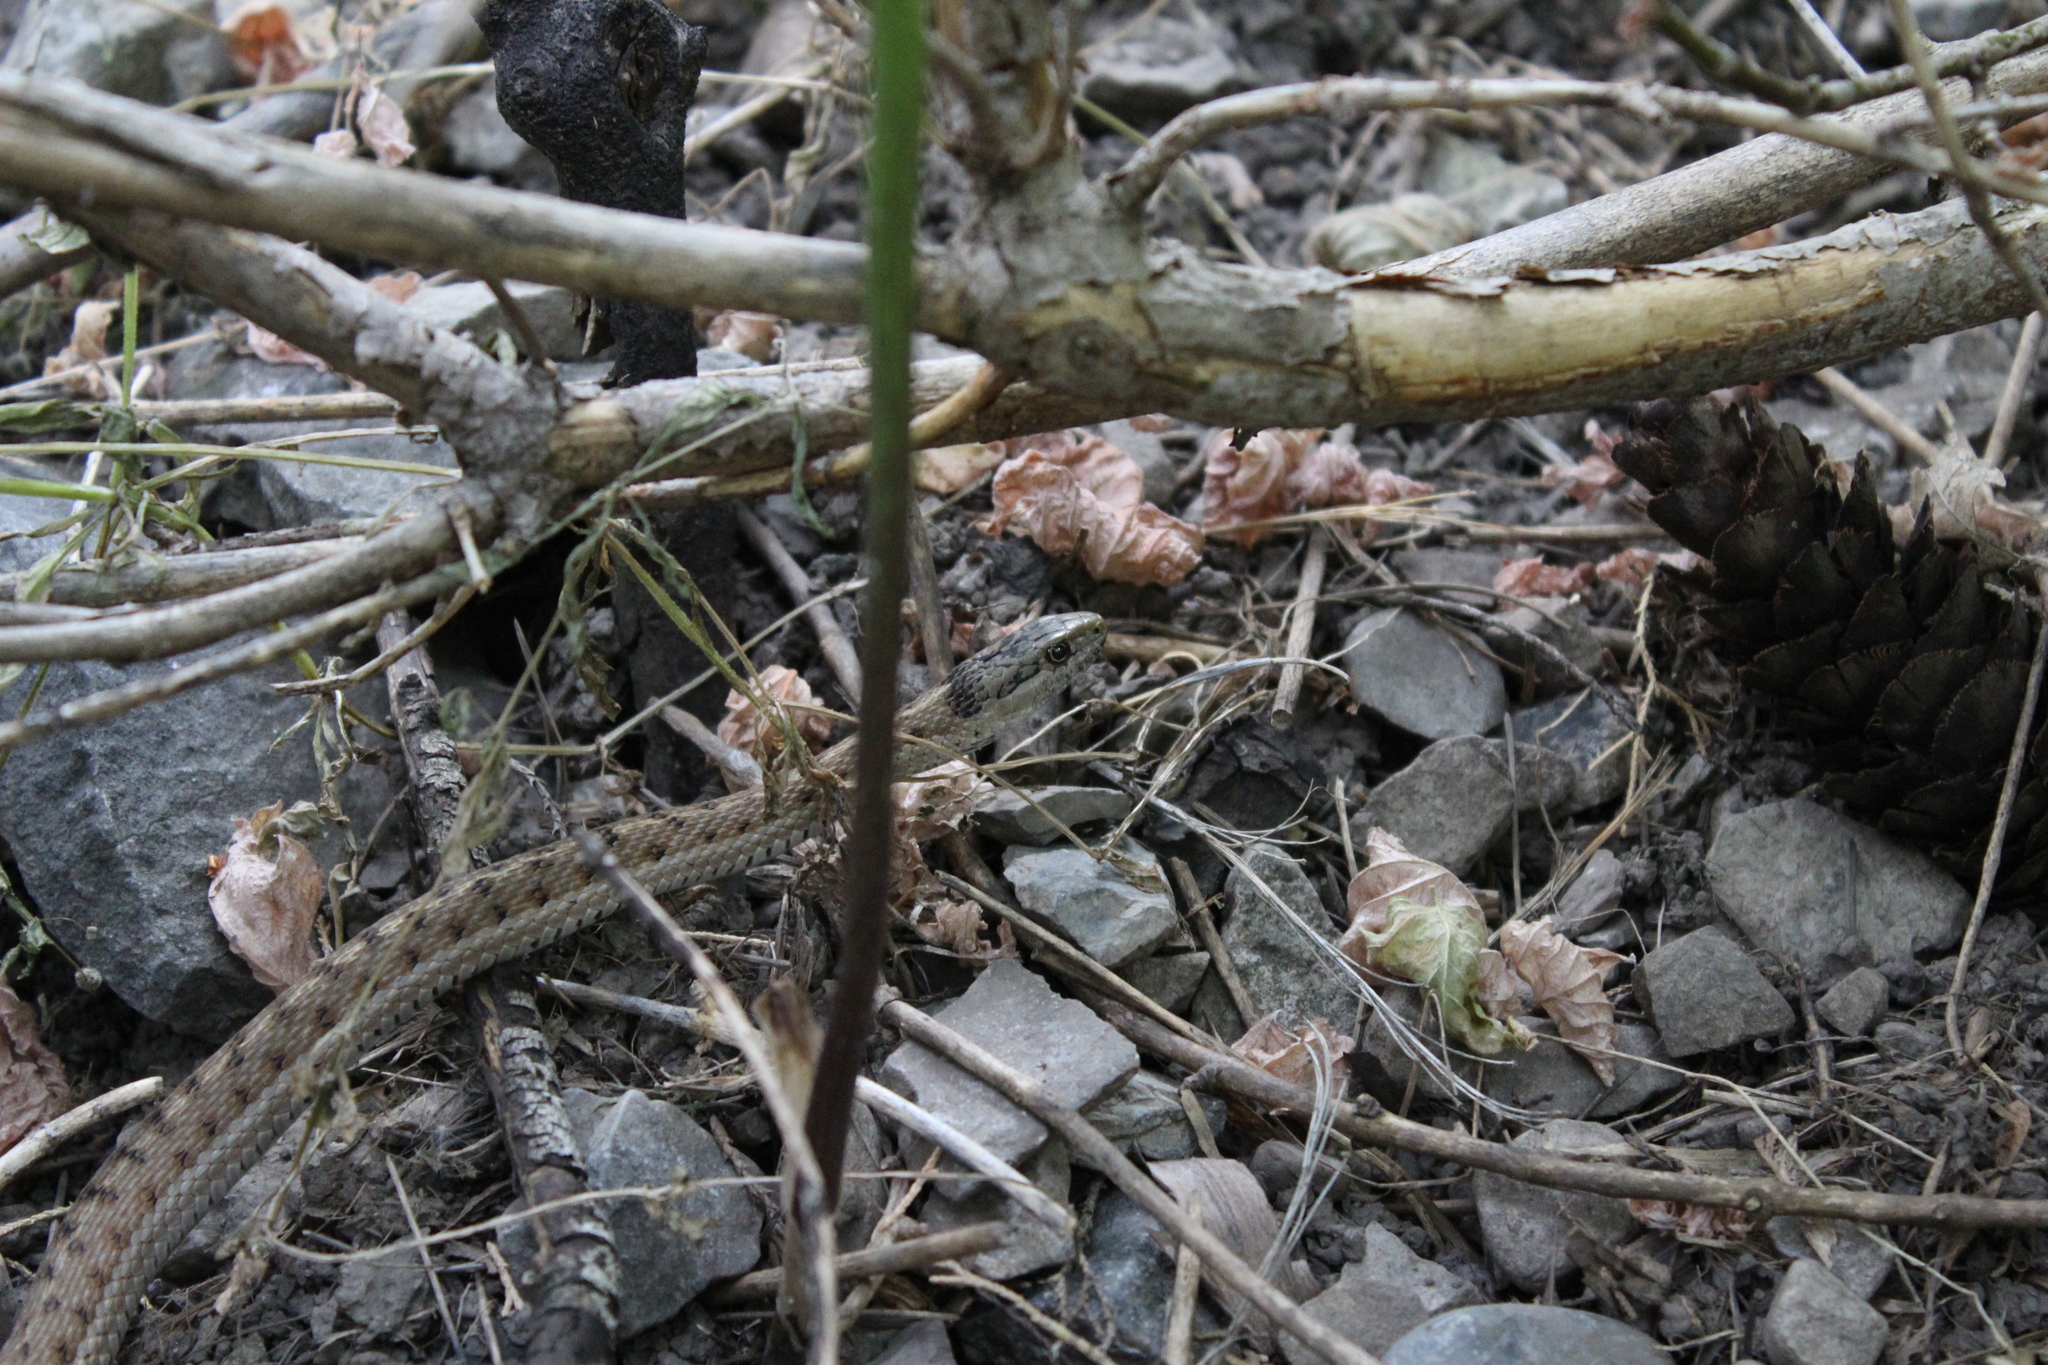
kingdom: Animalia
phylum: Chordata
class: Squamata
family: Colubridae
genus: Thamnophis
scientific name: Thamnophis elegans
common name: Western terrestrial garter snake
